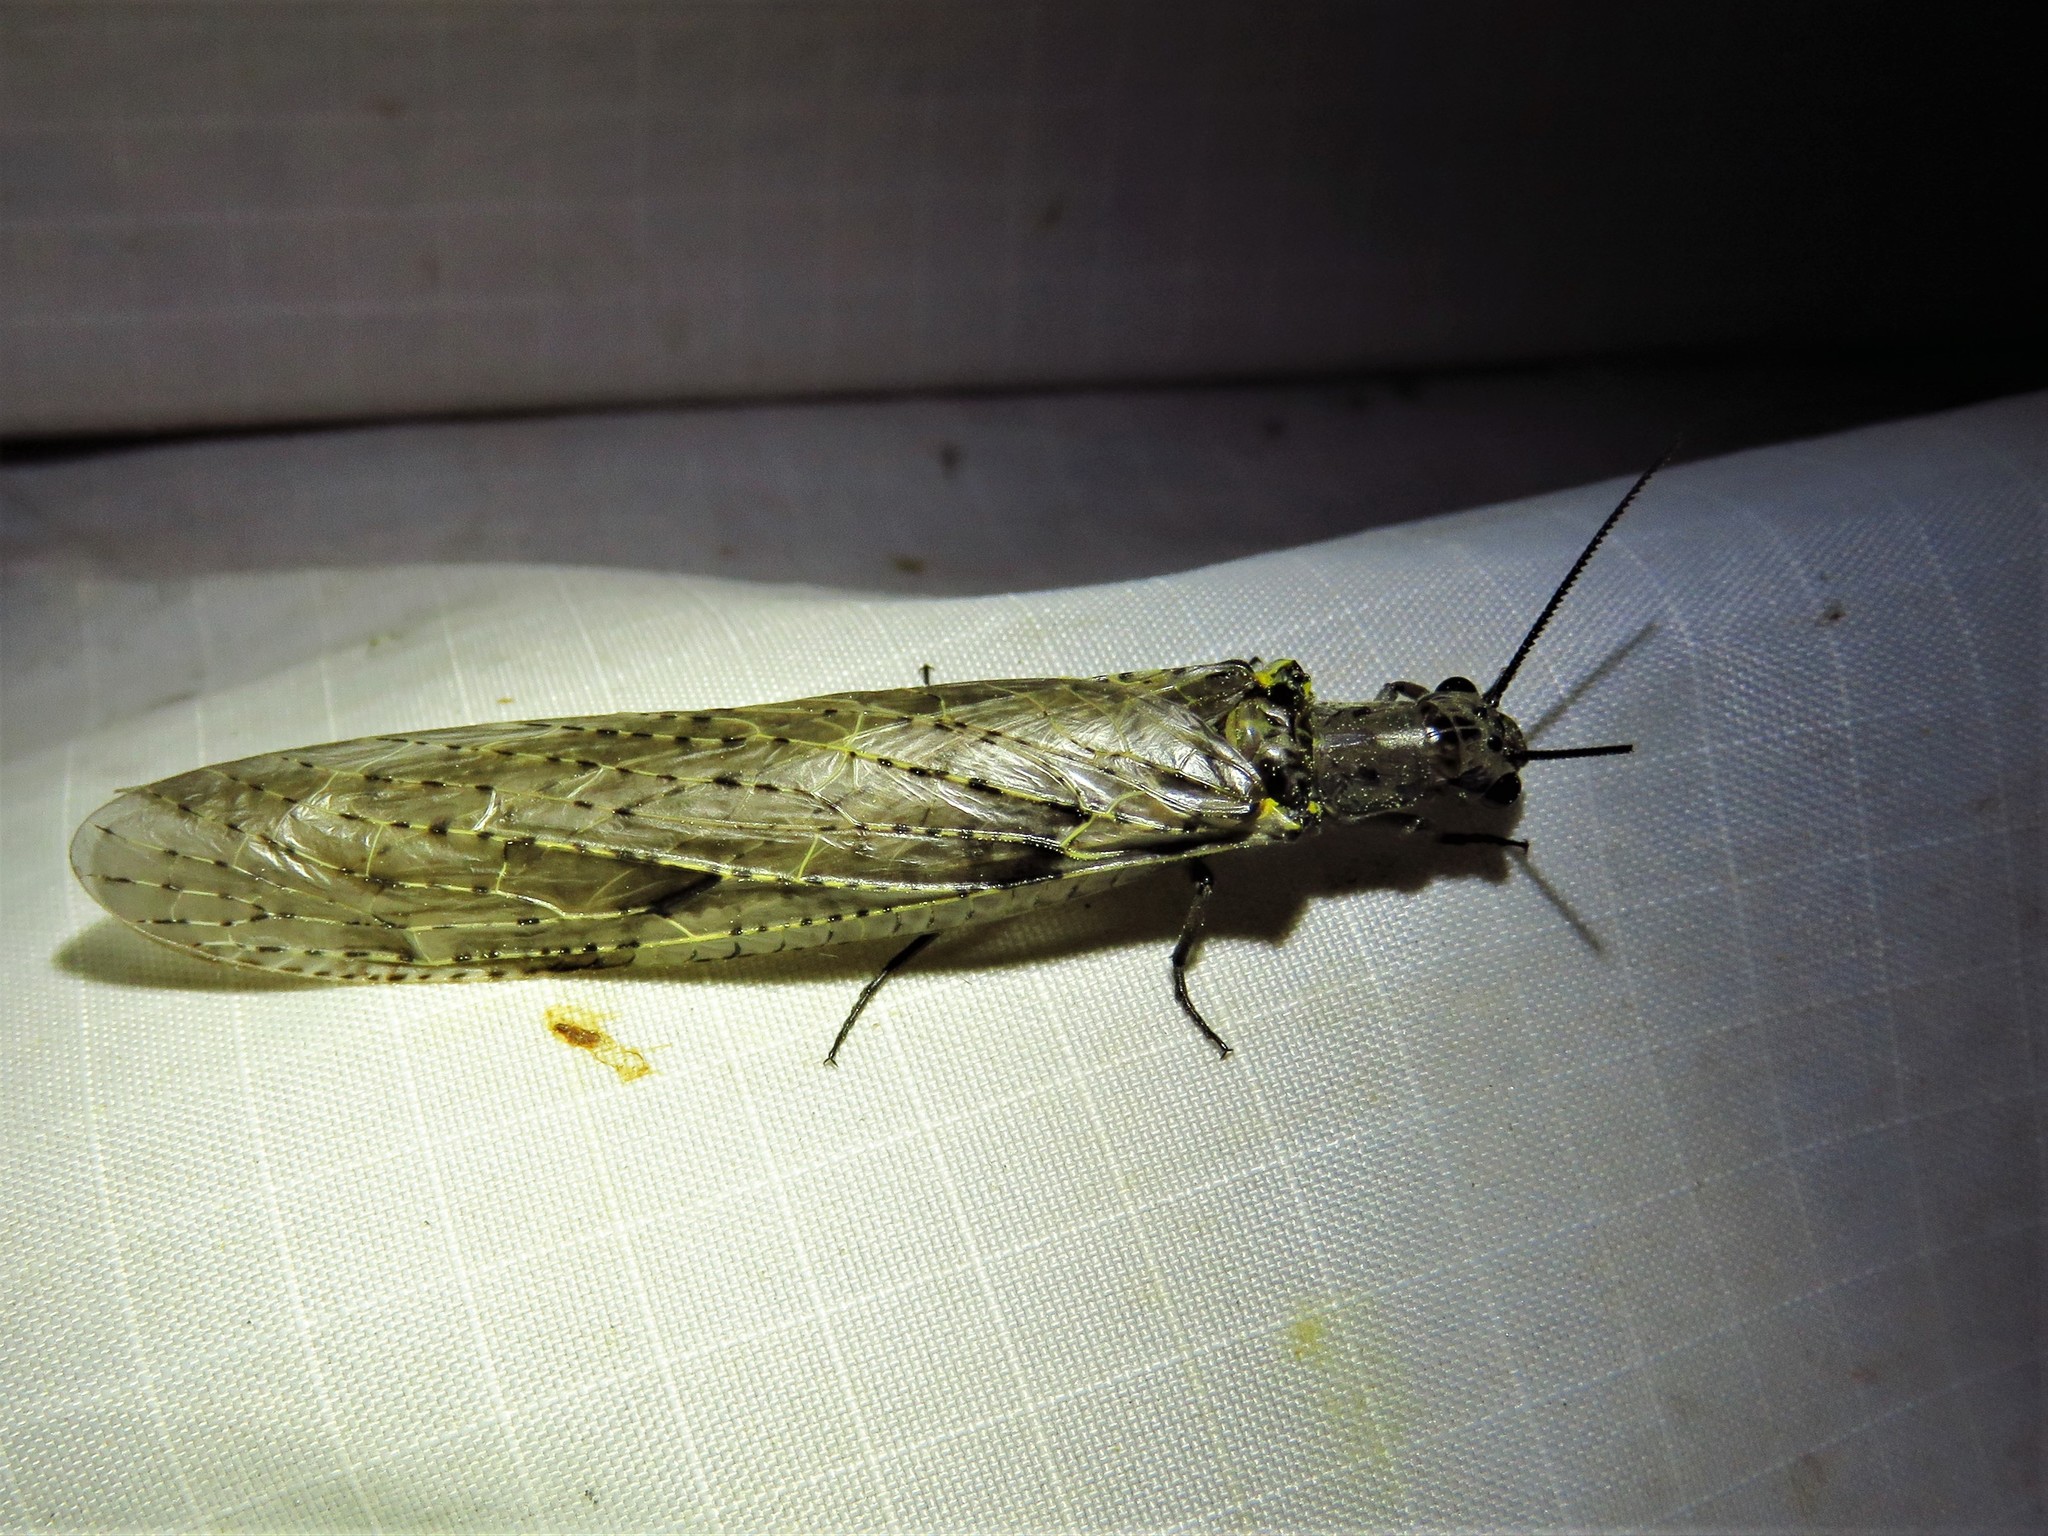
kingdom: Animalia
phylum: Arthropoda
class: Insecta
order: Megaloptera
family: Corydalidae
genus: Chauliodes
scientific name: Chauliodes rastricornis
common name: Spring fishfly
